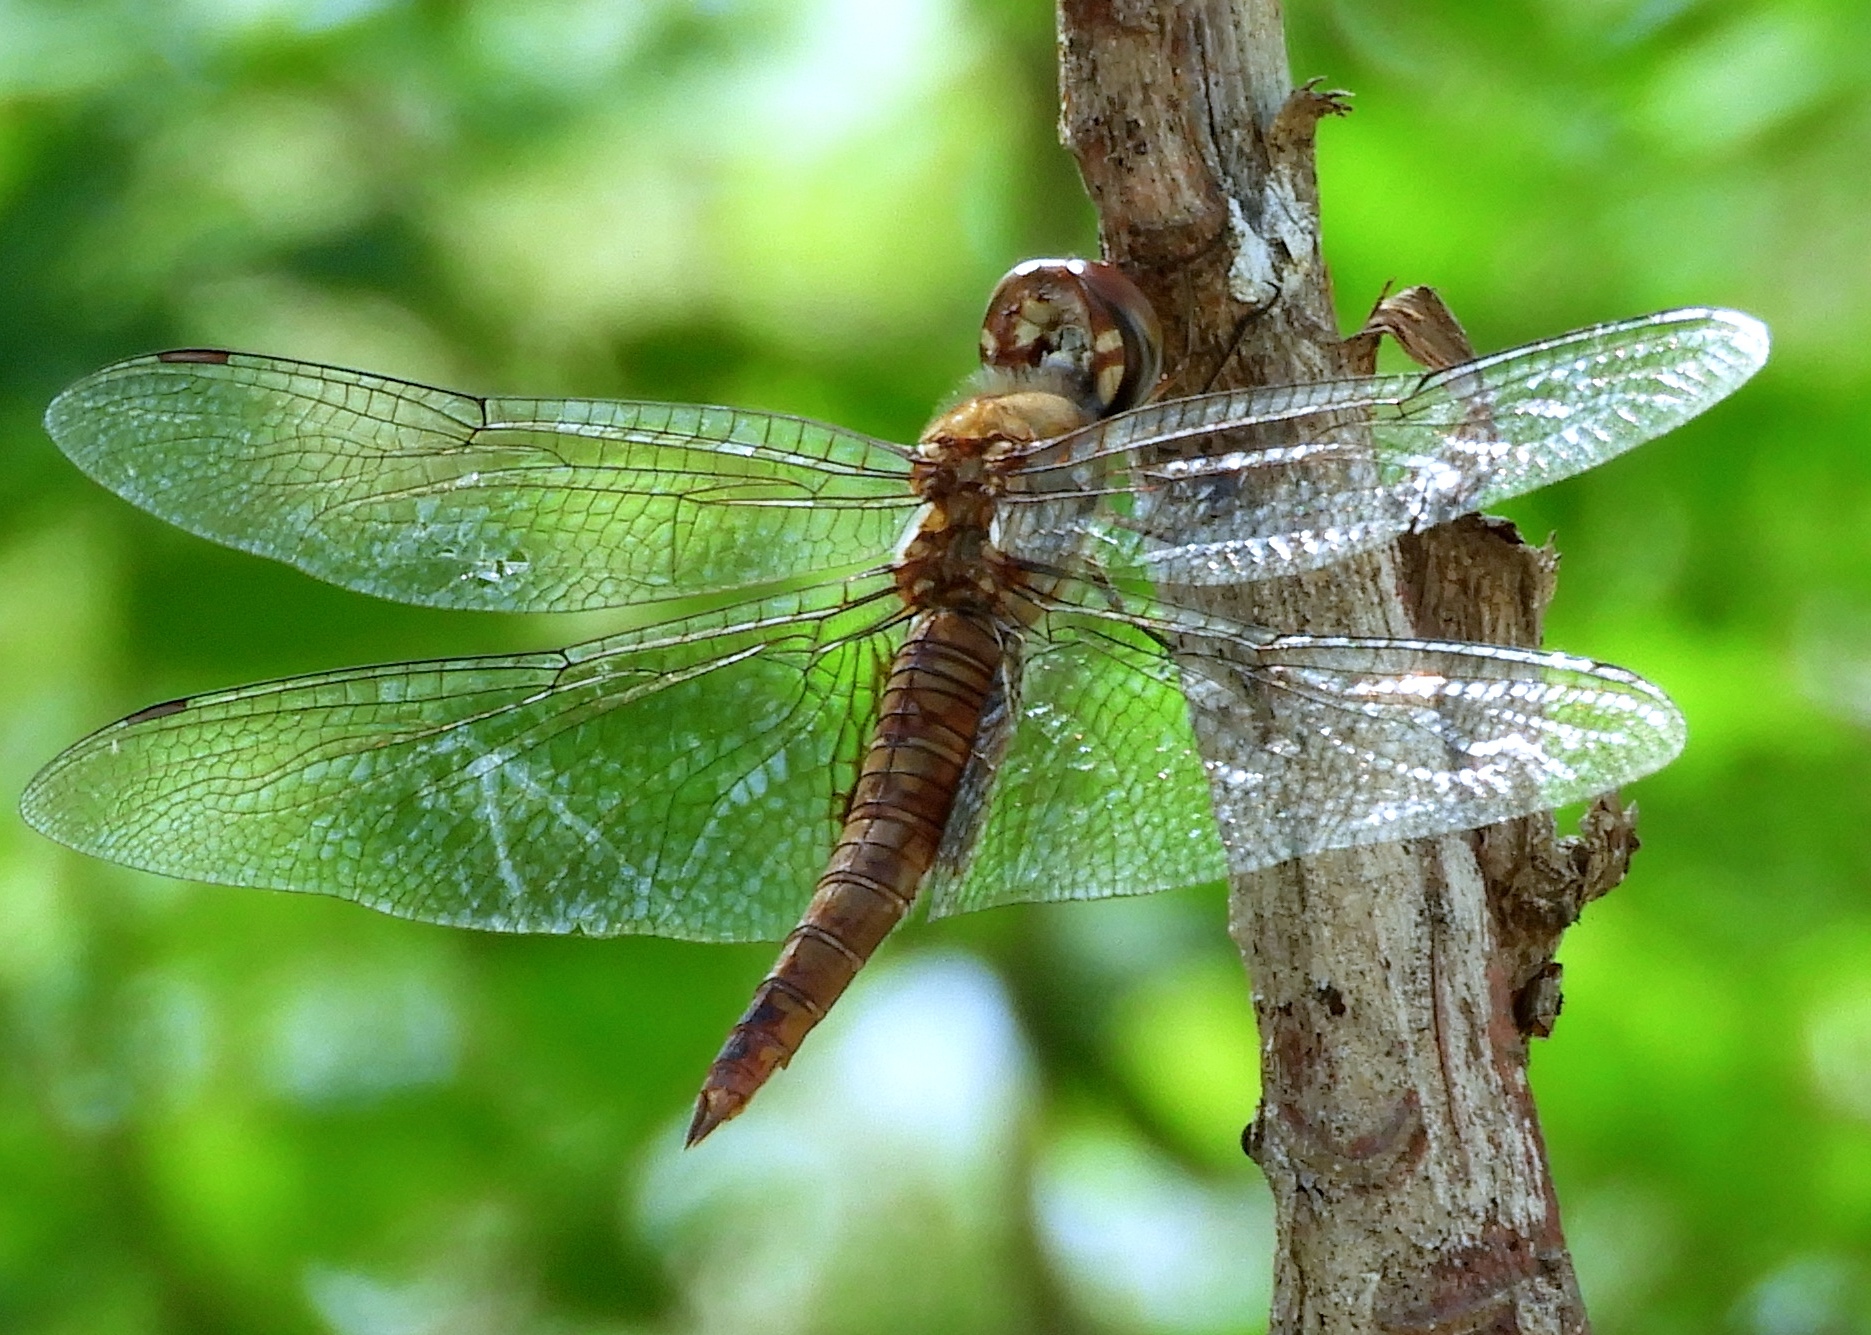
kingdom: Animalia
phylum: Arthropoda
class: Insecta
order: Odonata
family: Libellulidae
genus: Pantala
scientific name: Pantala hymenaea
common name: Spot-winged glider
